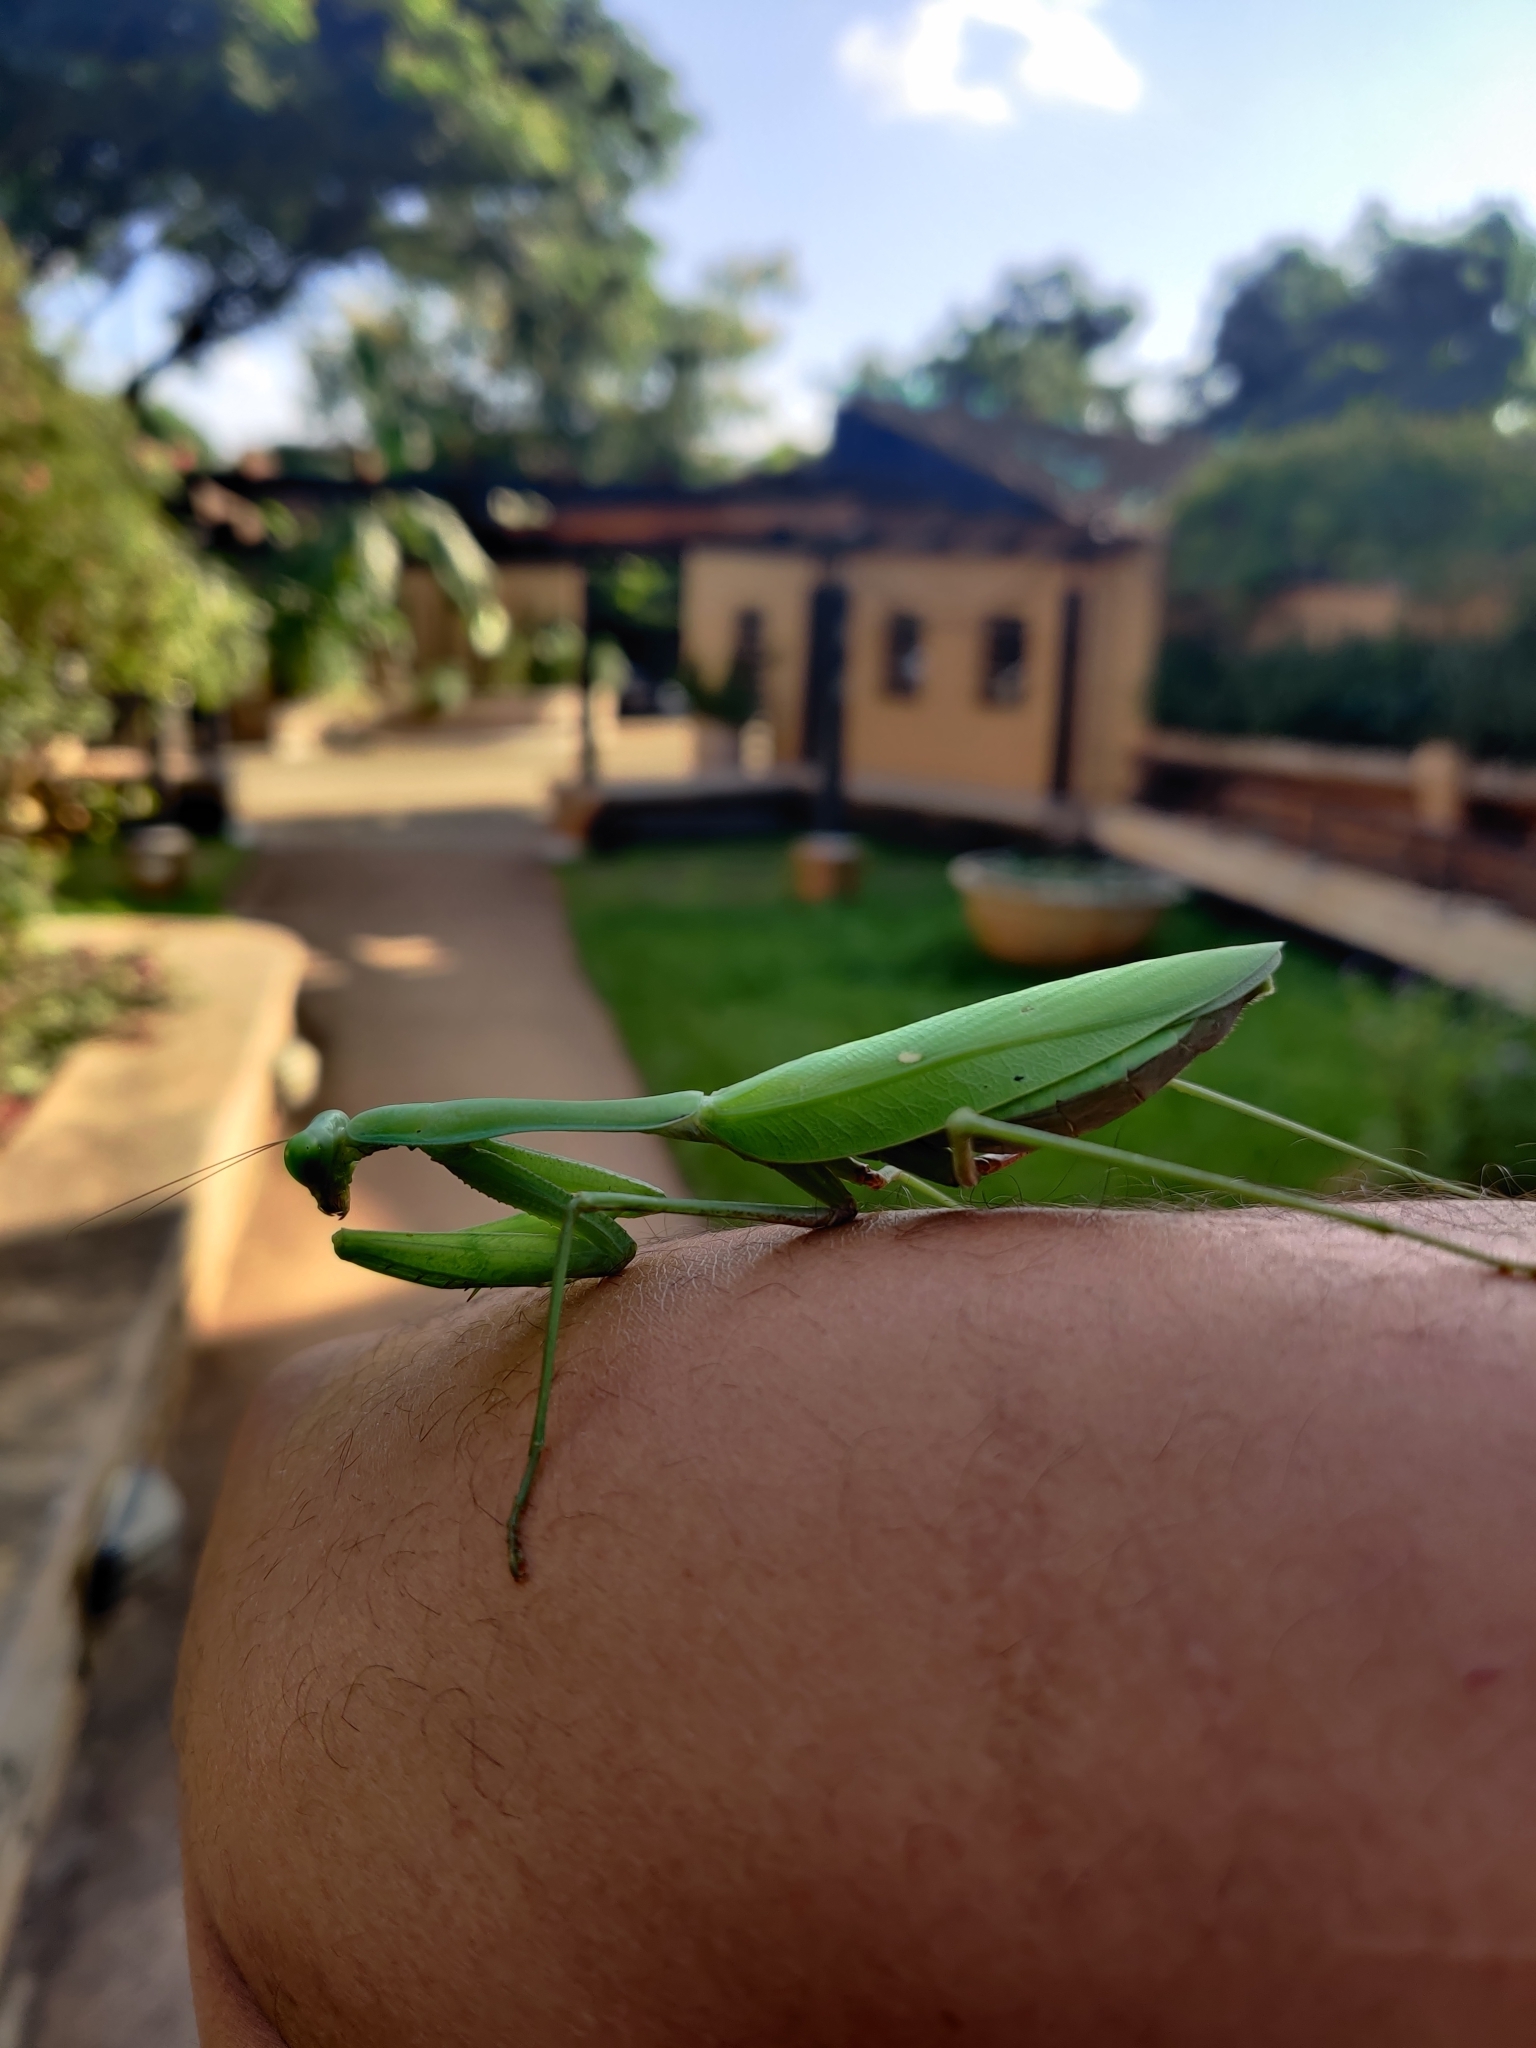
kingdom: Animalia
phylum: Arthropoda
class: Insecta
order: Mantodea
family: Mantidae
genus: Hierodula
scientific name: Hierodula membranacea
